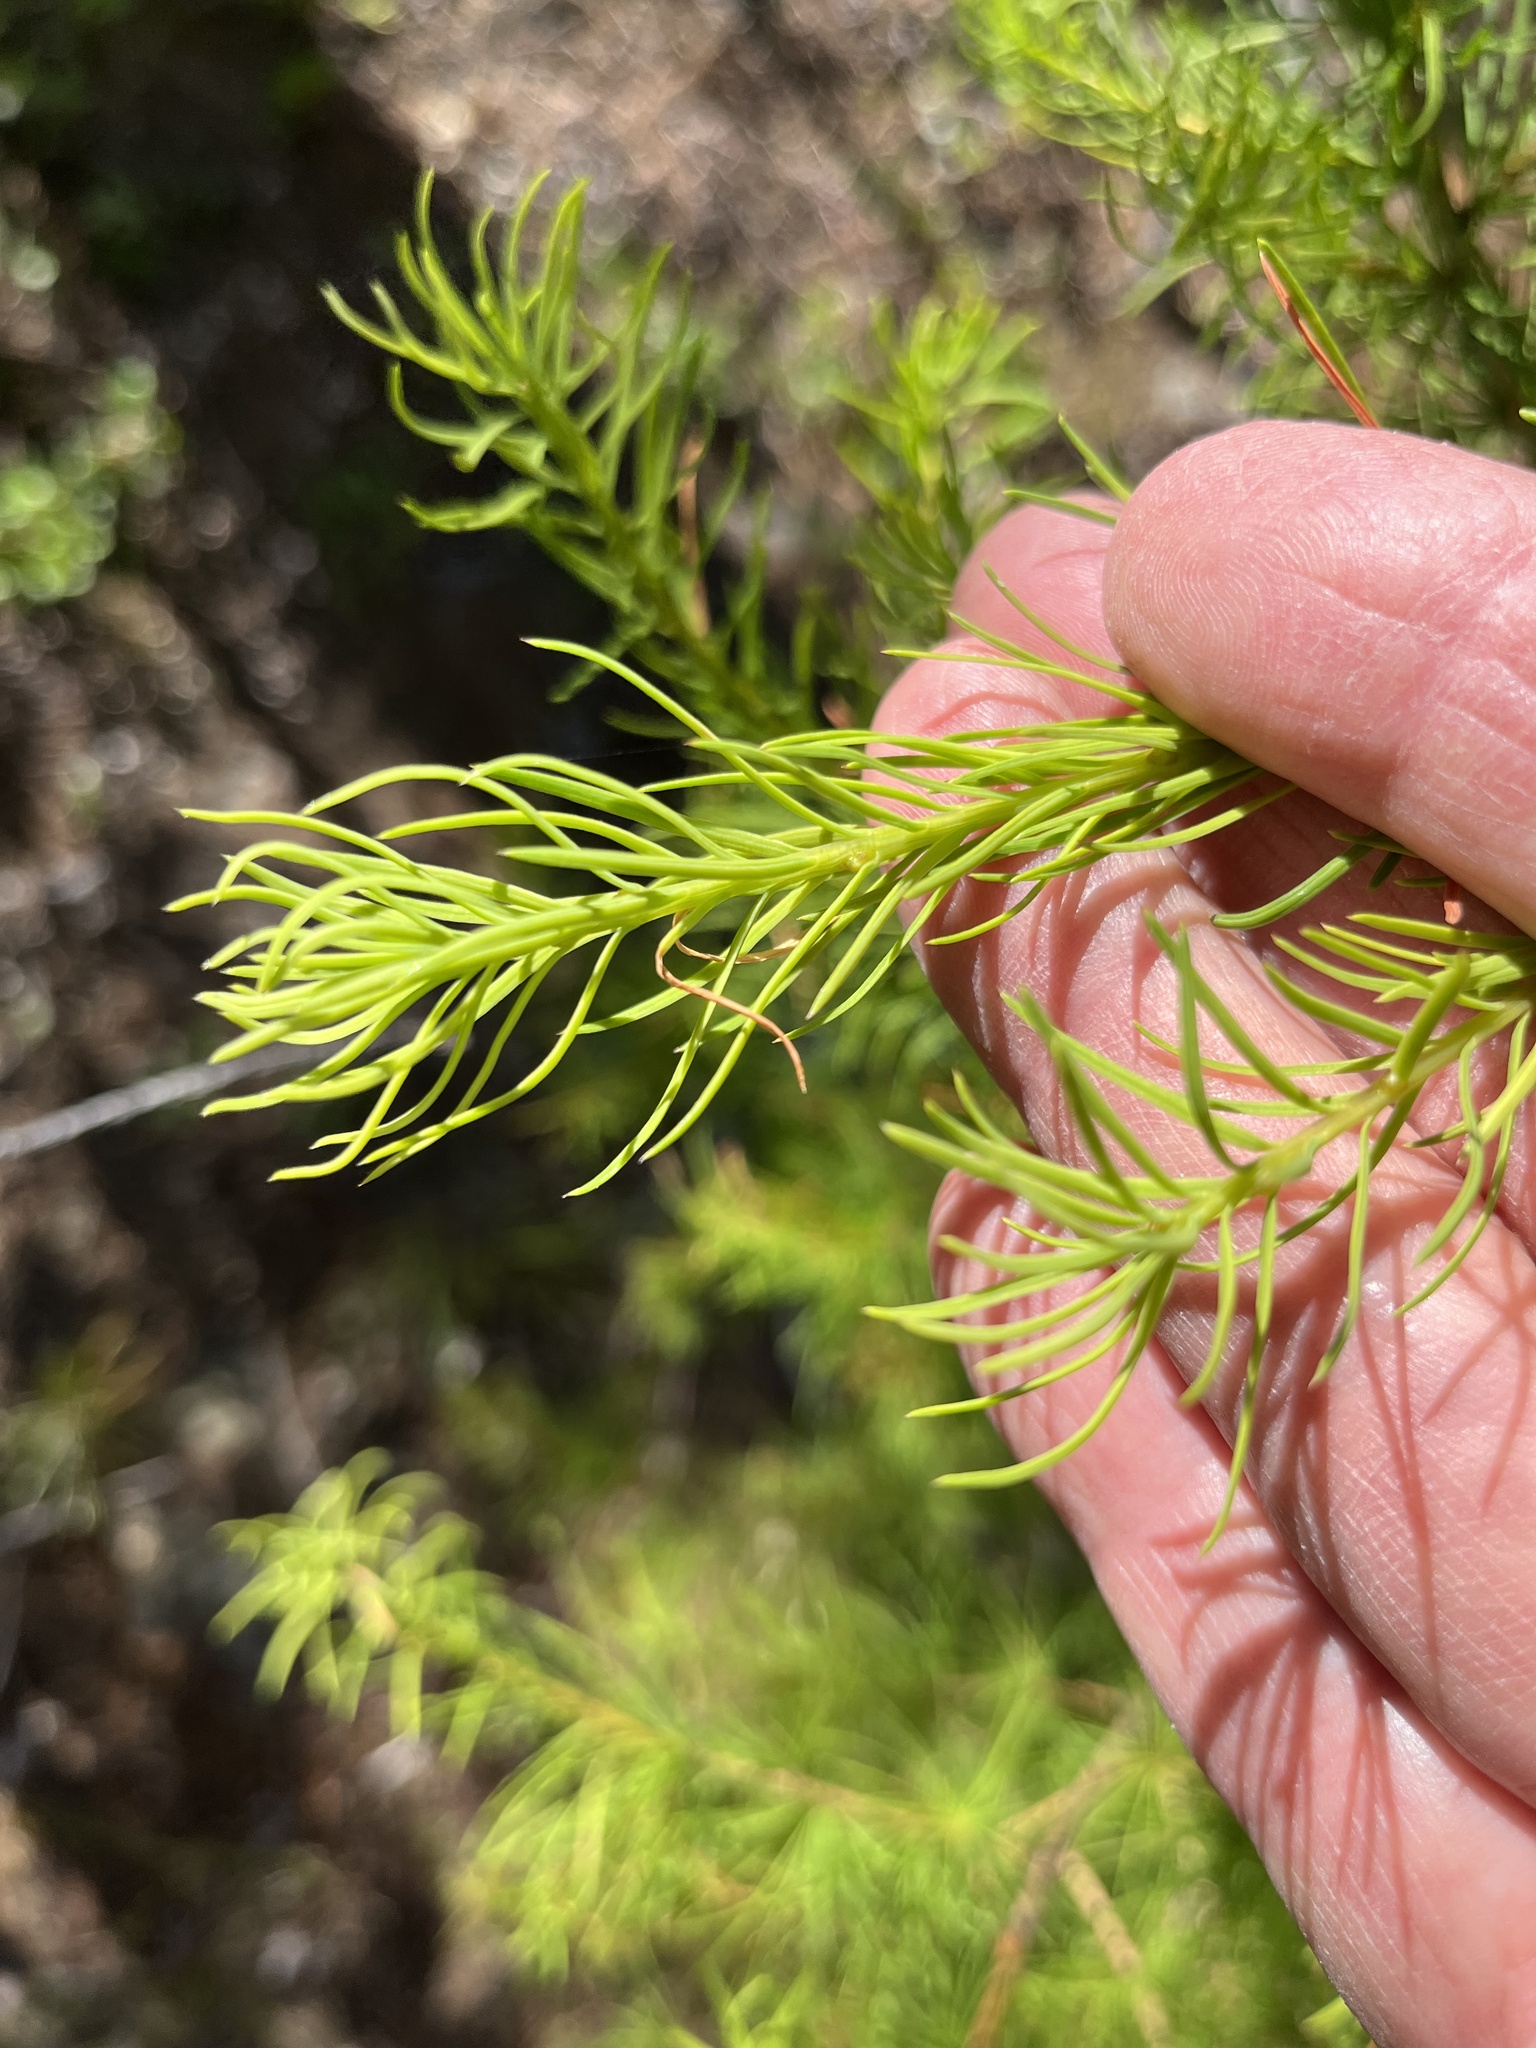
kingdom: Plantae
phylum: Tracheophyta
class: Pinopsida
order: Pinales
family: Pinaceae
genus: Larix
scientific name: Larix occidentalis
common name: Western larch
